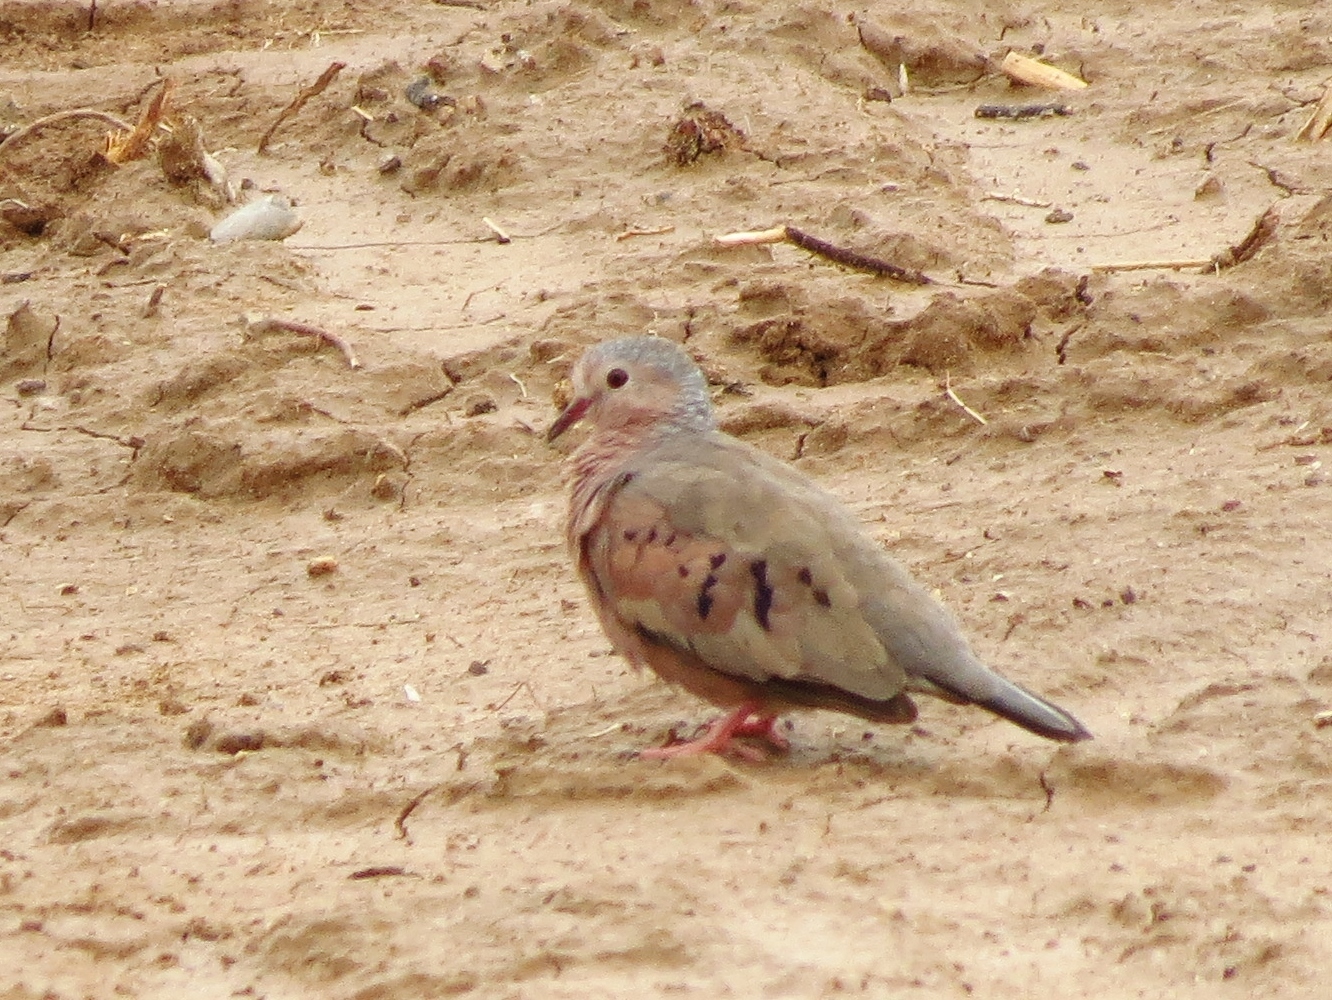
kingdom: Animalia
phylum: Chordata
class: Aves
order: Columbiformes
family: Columbidae
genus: Columbina
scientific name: Columbina passerina
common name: Common ground-dove
